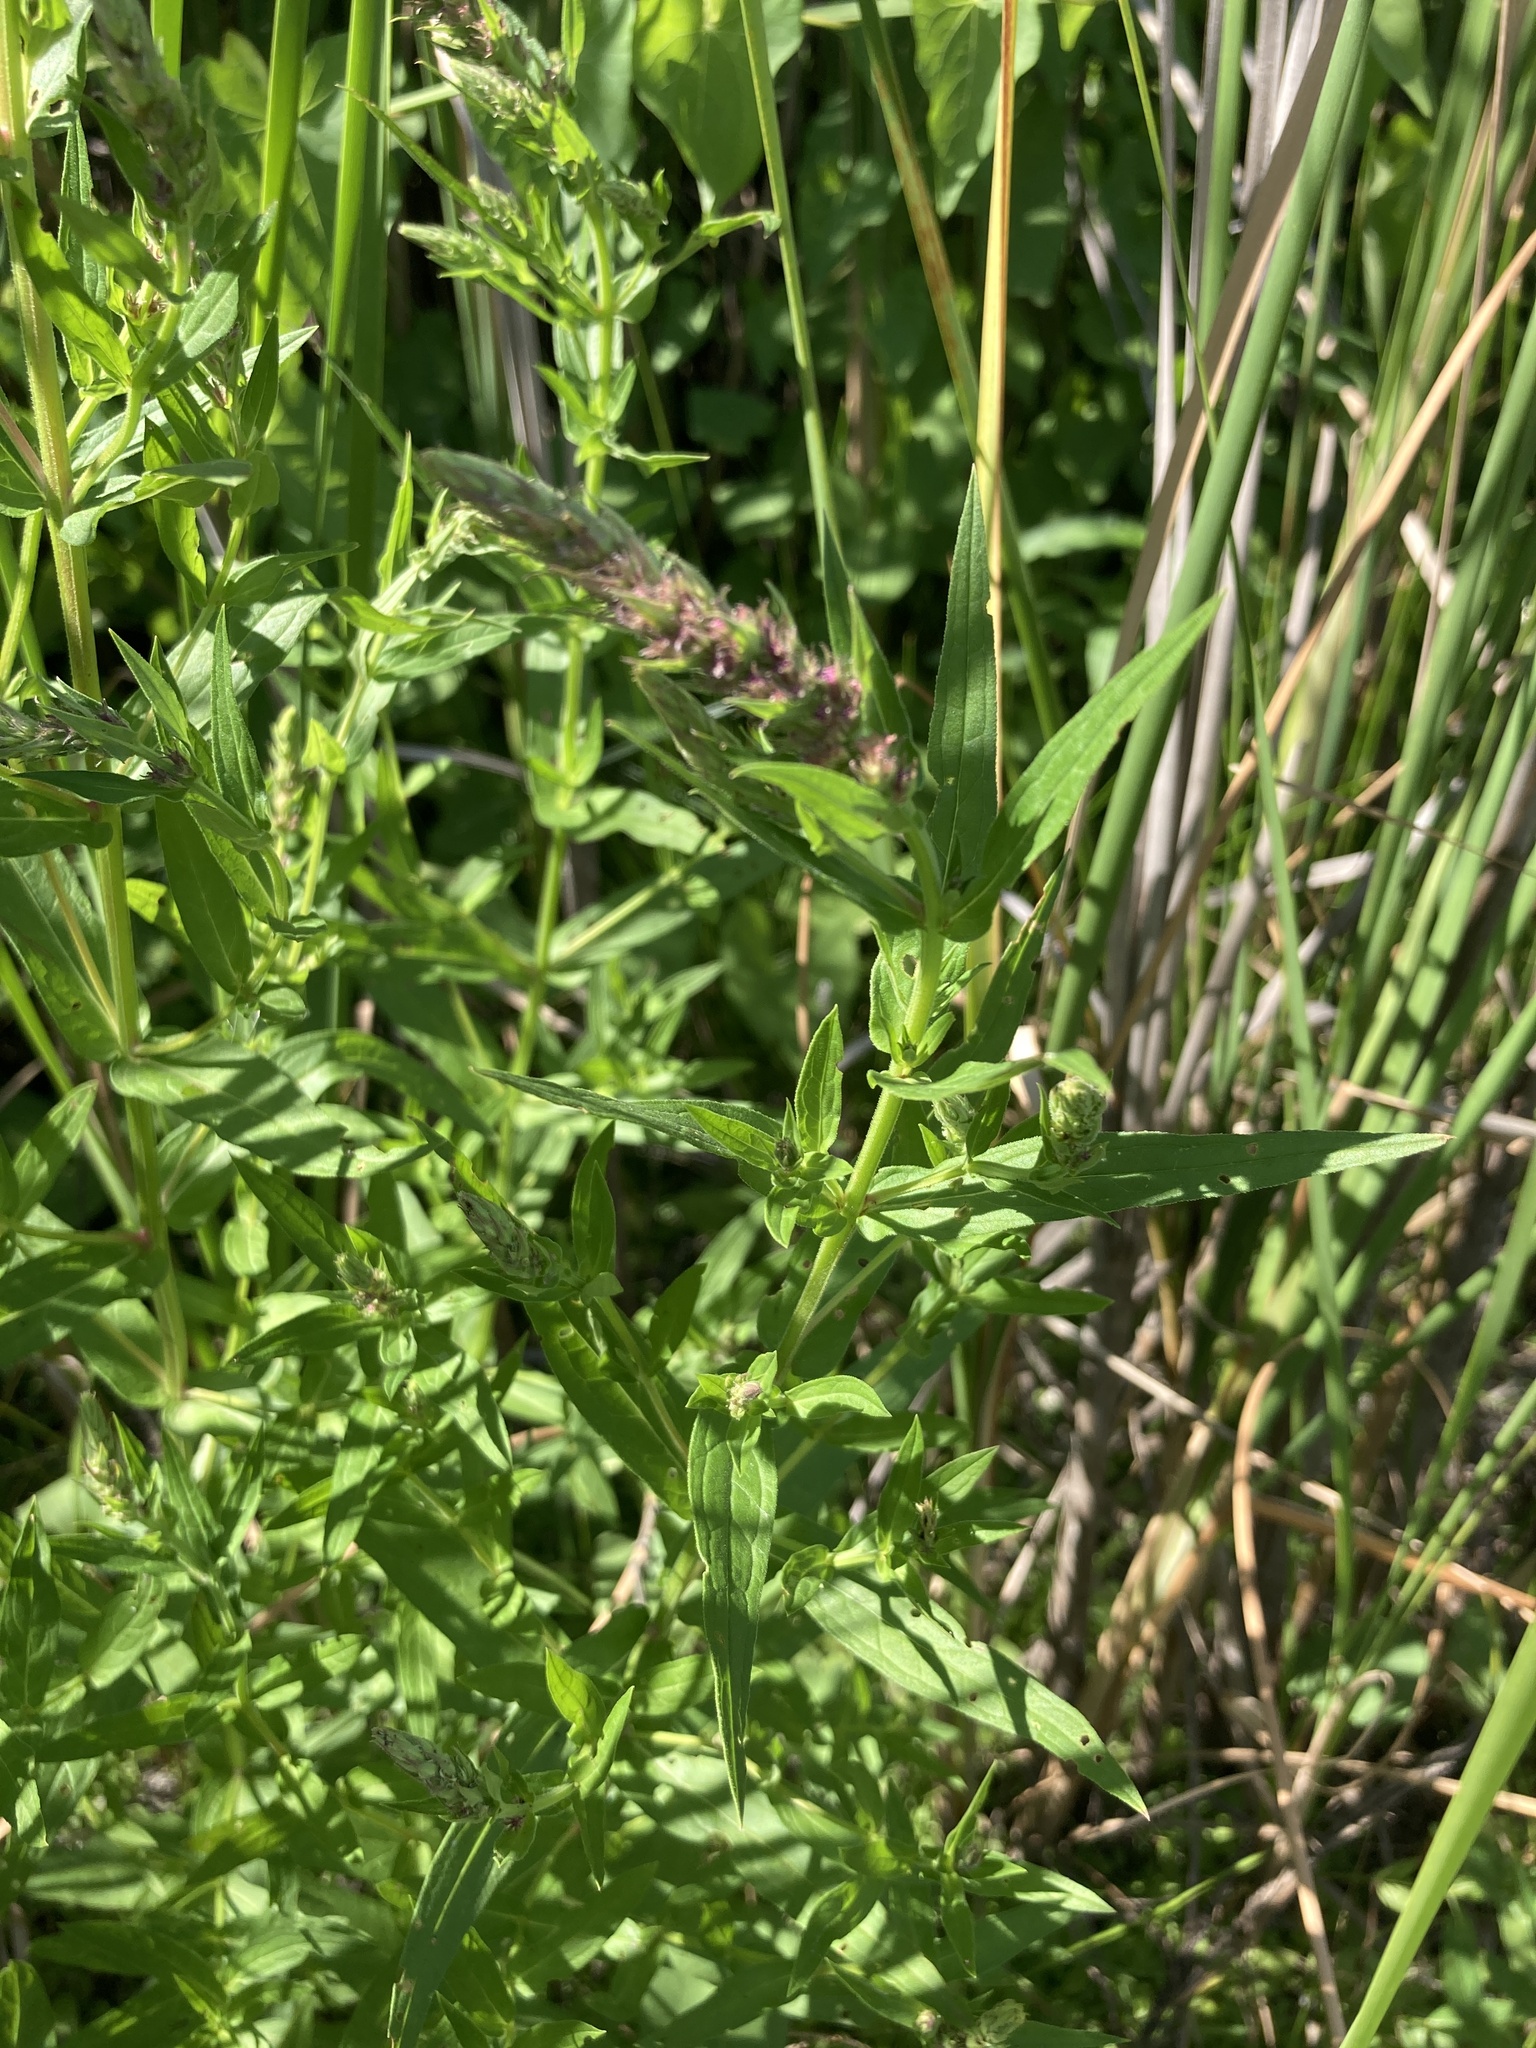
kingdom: Plantae
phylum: Tracheophyta
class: Magnoliopsida
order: Myrtales
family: Lythraceae
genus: Lythrum
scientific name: Lythrum salicaria
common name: Purple loosestrife
